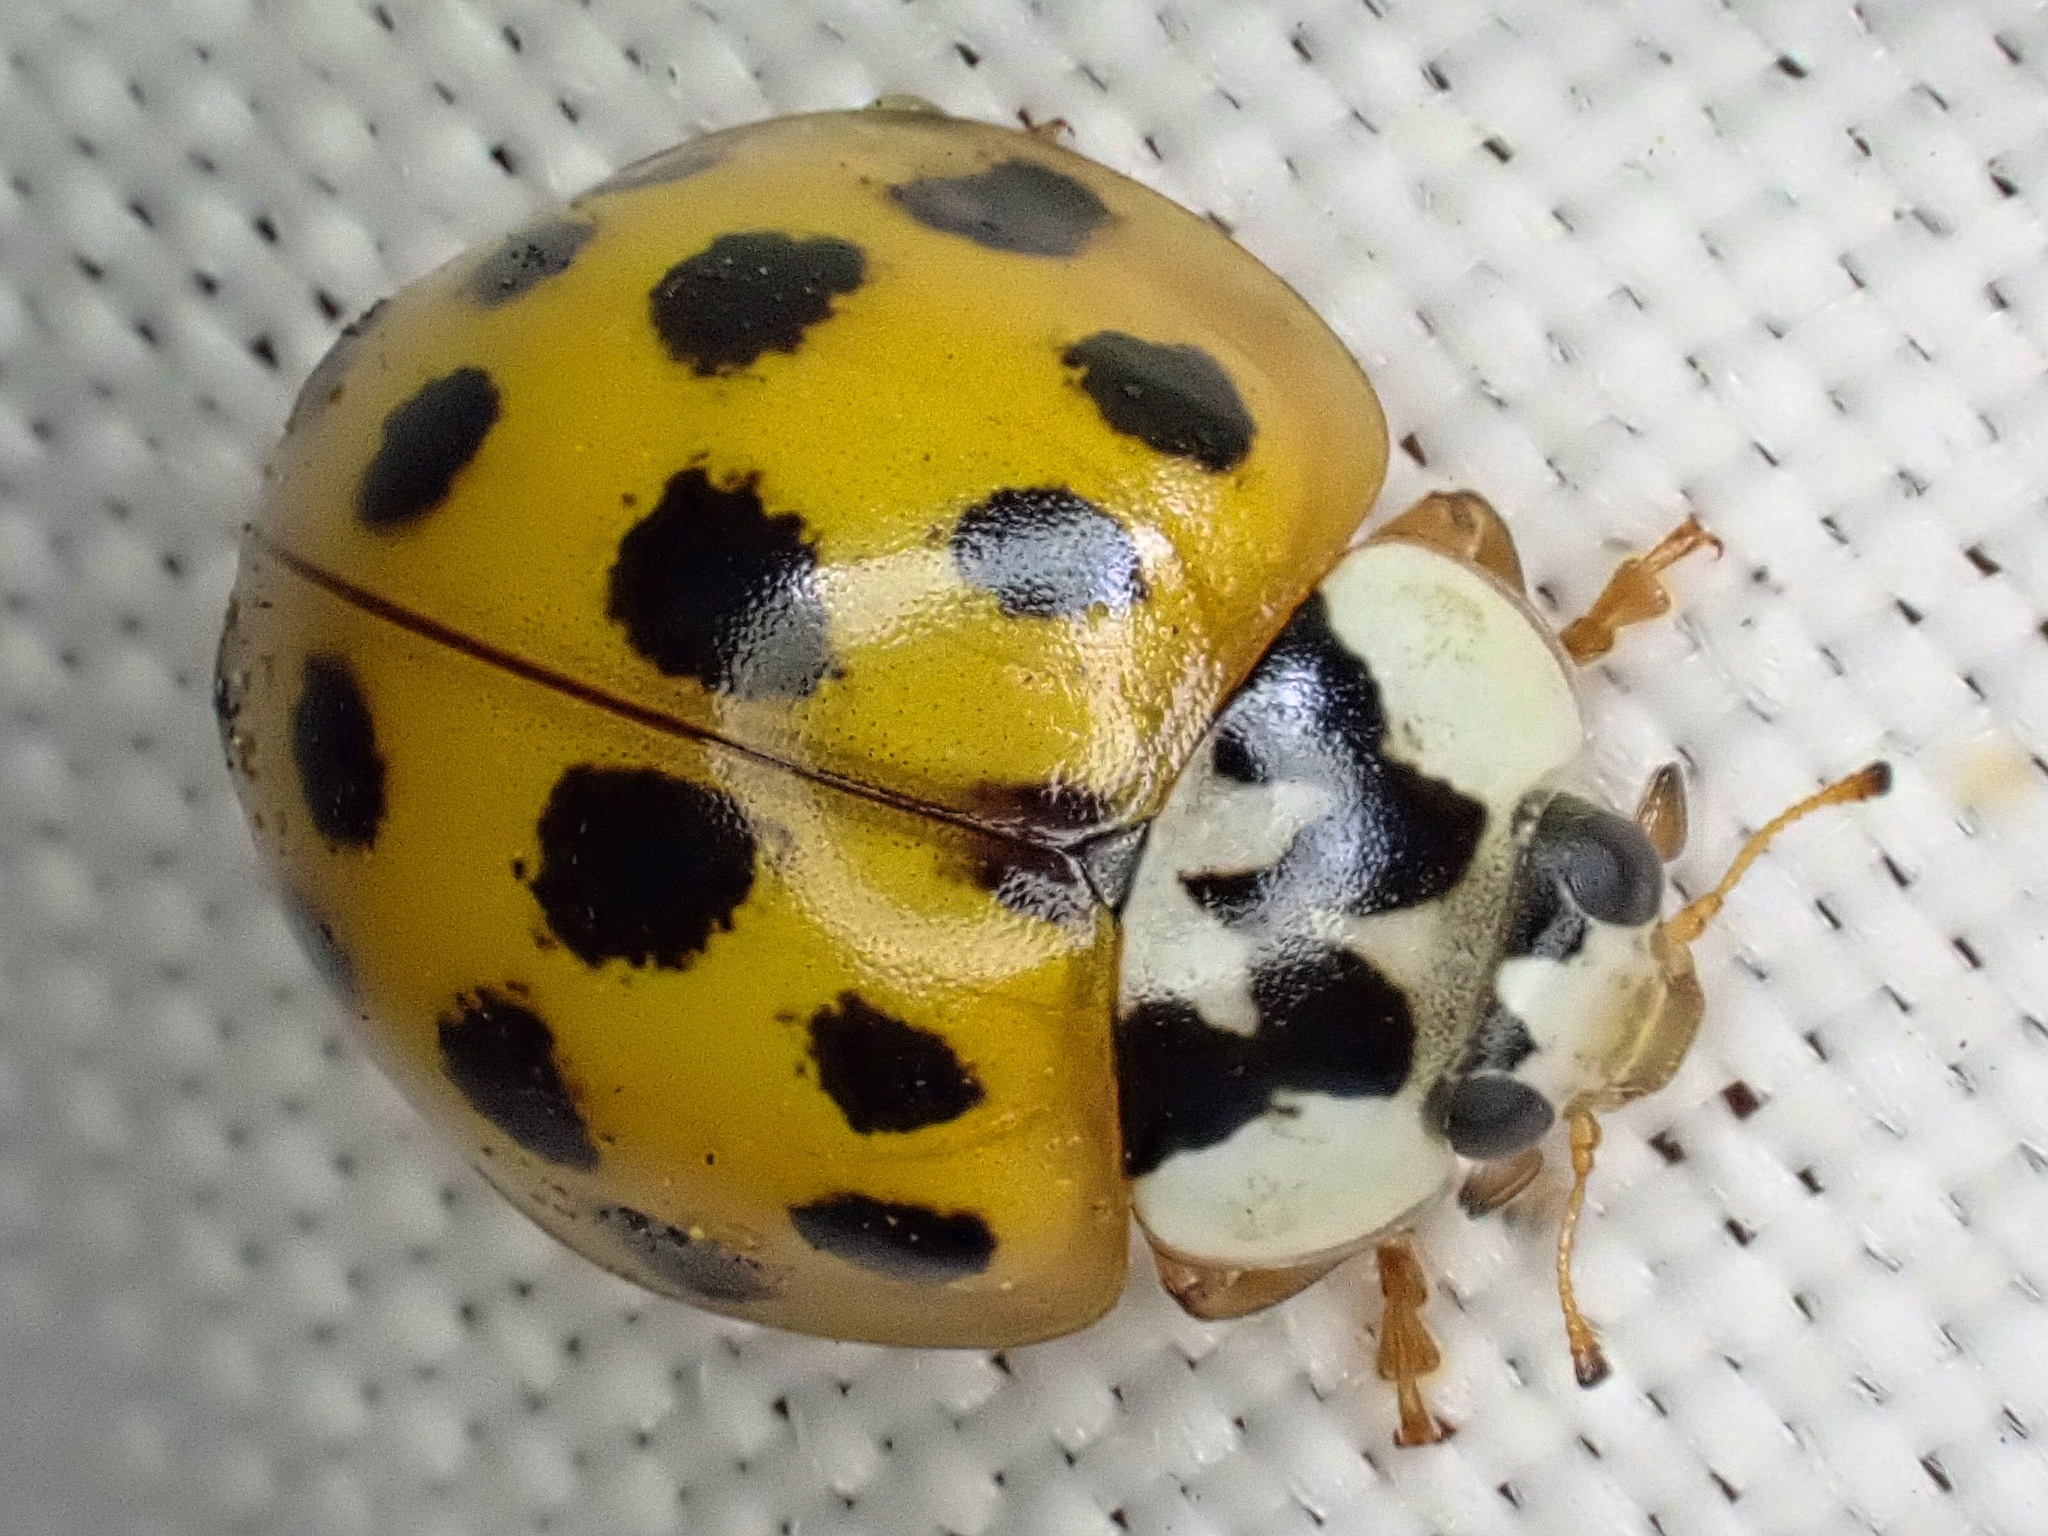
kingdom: Animalia
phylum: Arthropoda
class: Insecta
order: Coleoptera
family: Coccinellidae
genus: Harmonia
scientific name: Harmonia axyridis
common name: Harlequin ladybird
